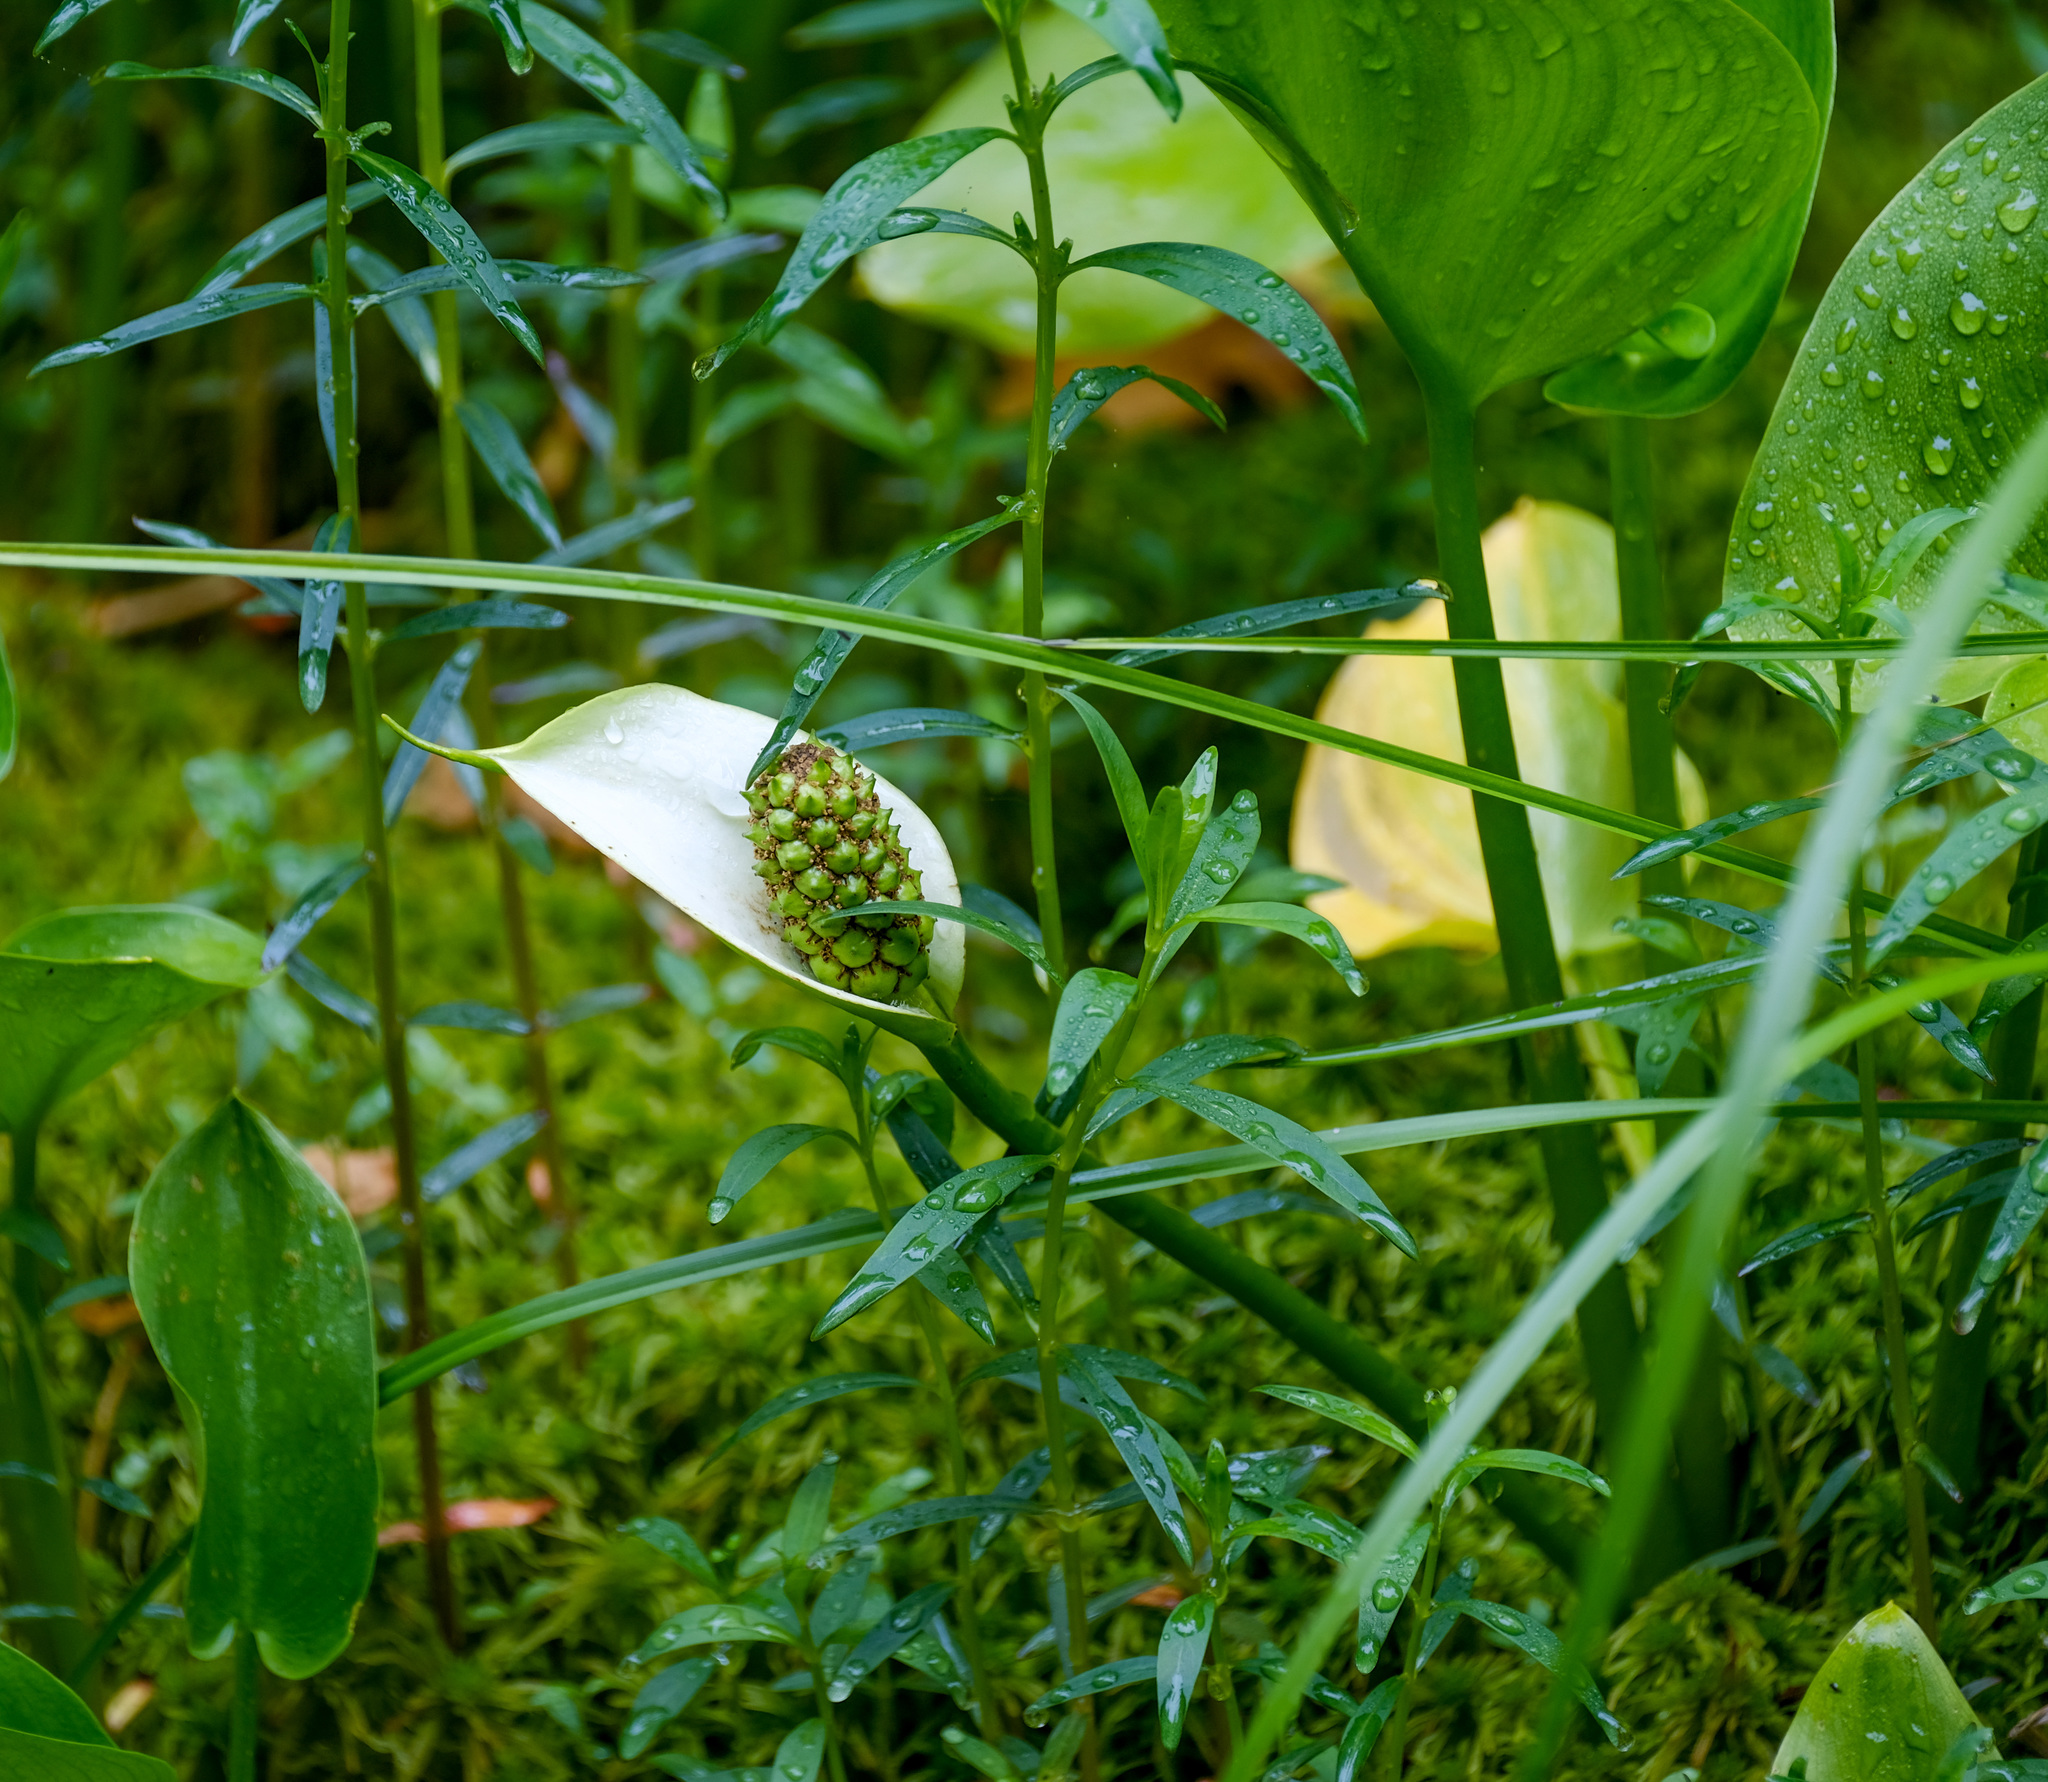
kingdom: Plantae
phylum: Tracheophyta
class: Liliopsida
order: Alismatales
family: Araceae
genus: Calla
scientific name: Calla palustris
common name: Bog arum
